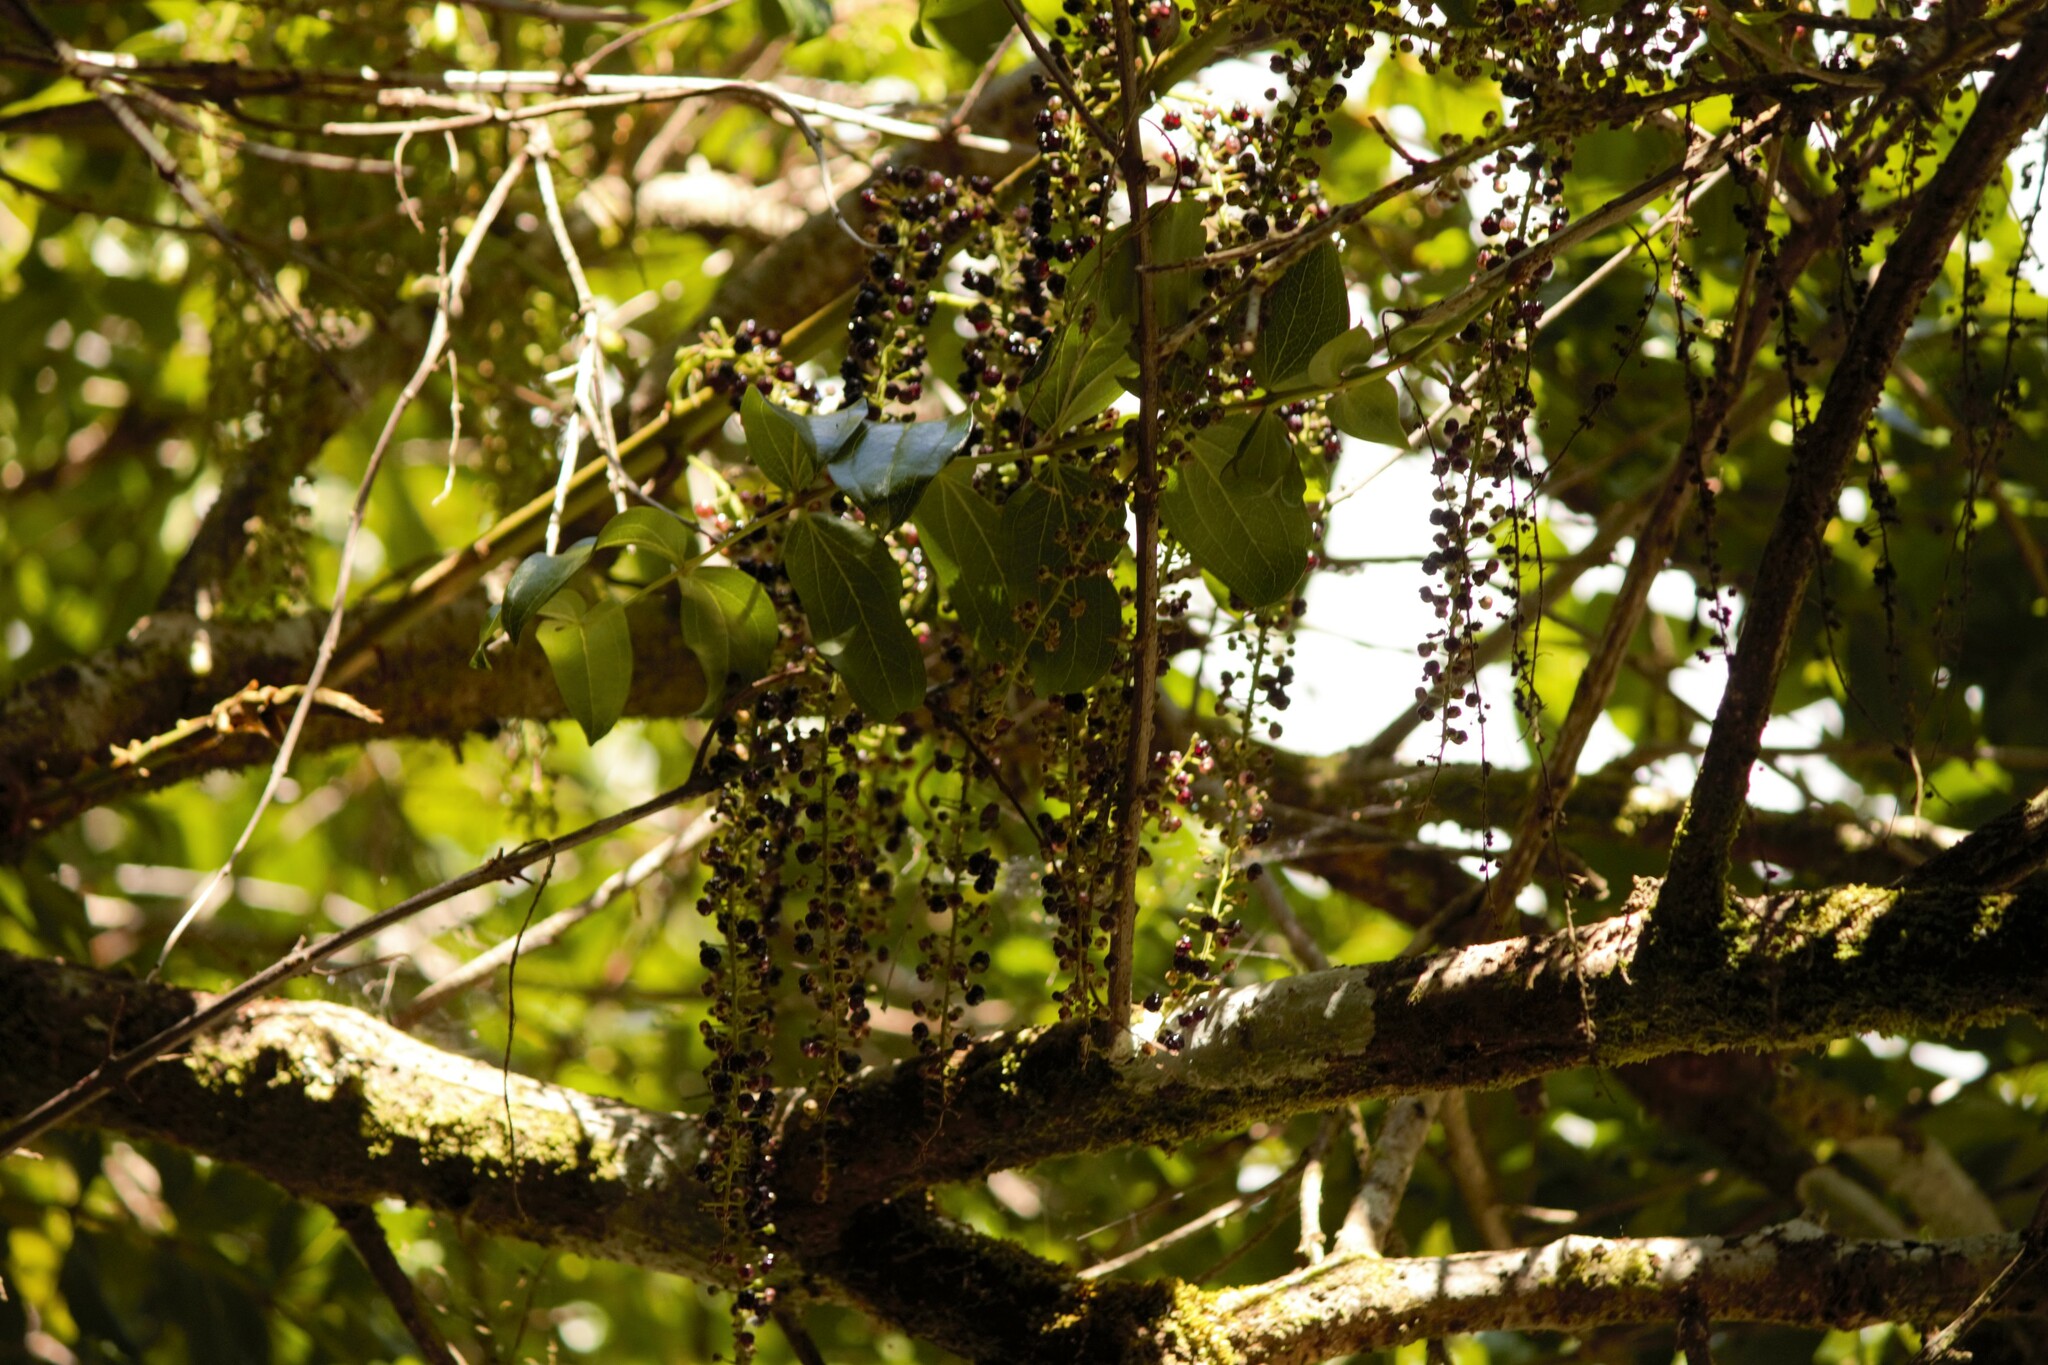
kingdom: Plantae
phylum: Tracheophyta
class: Magnoliopsida
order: Cucurbitales
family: Coriariaceae
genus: Coriaria
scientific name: Coriaria arborea
